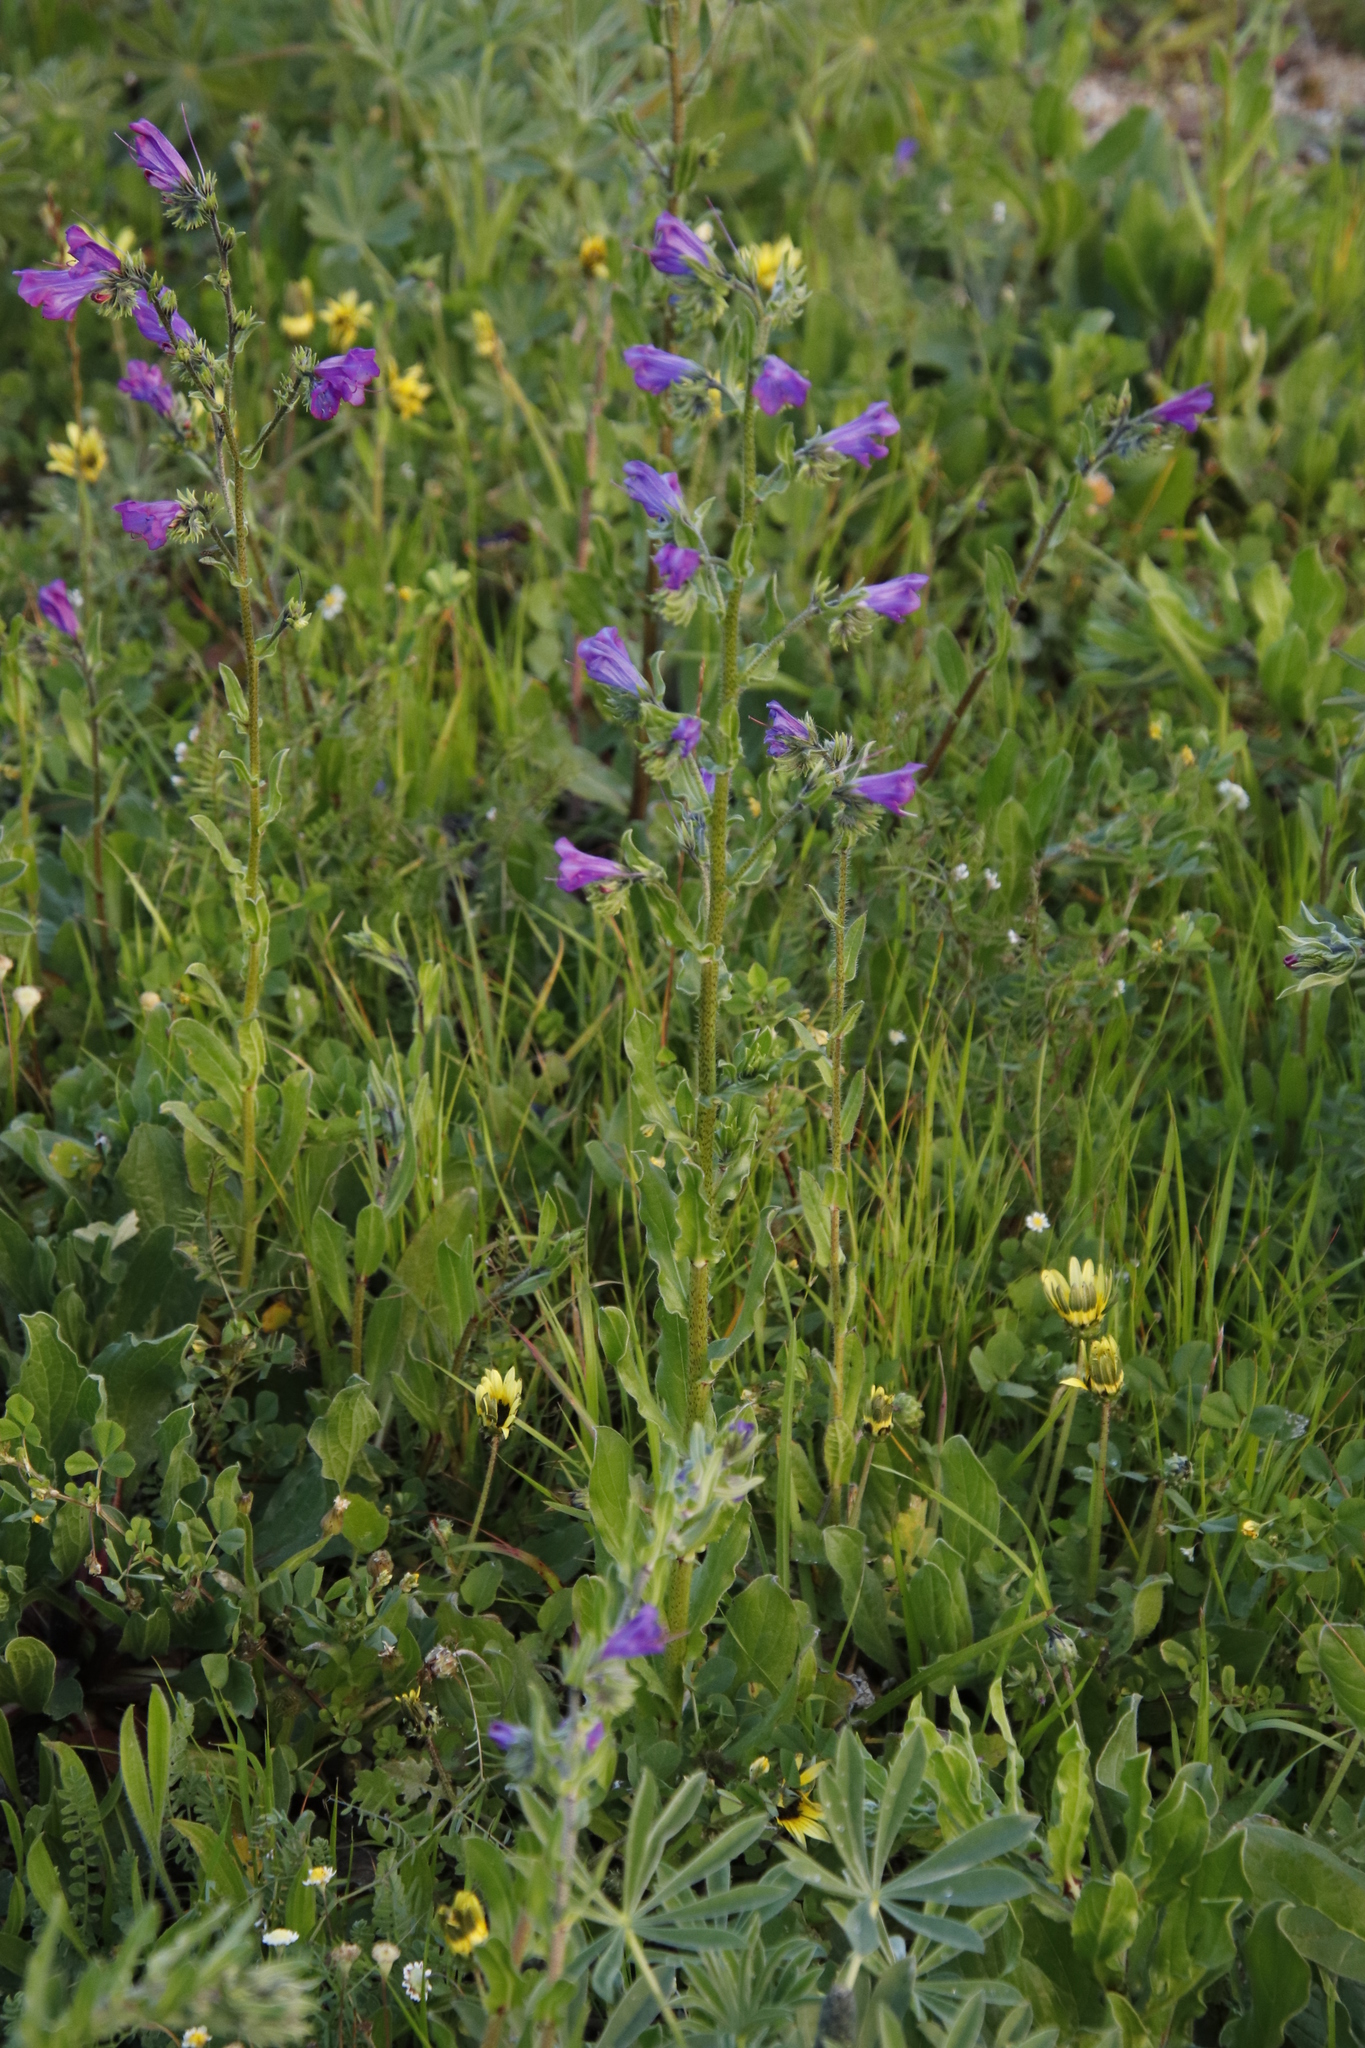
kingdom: Plantae
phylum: Tracheophyta
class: Magnoliopsida
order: Boraginales
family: Boraginaceae
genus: Echium
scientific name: Echium plantagineum
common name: Purple viper's-bugloss
